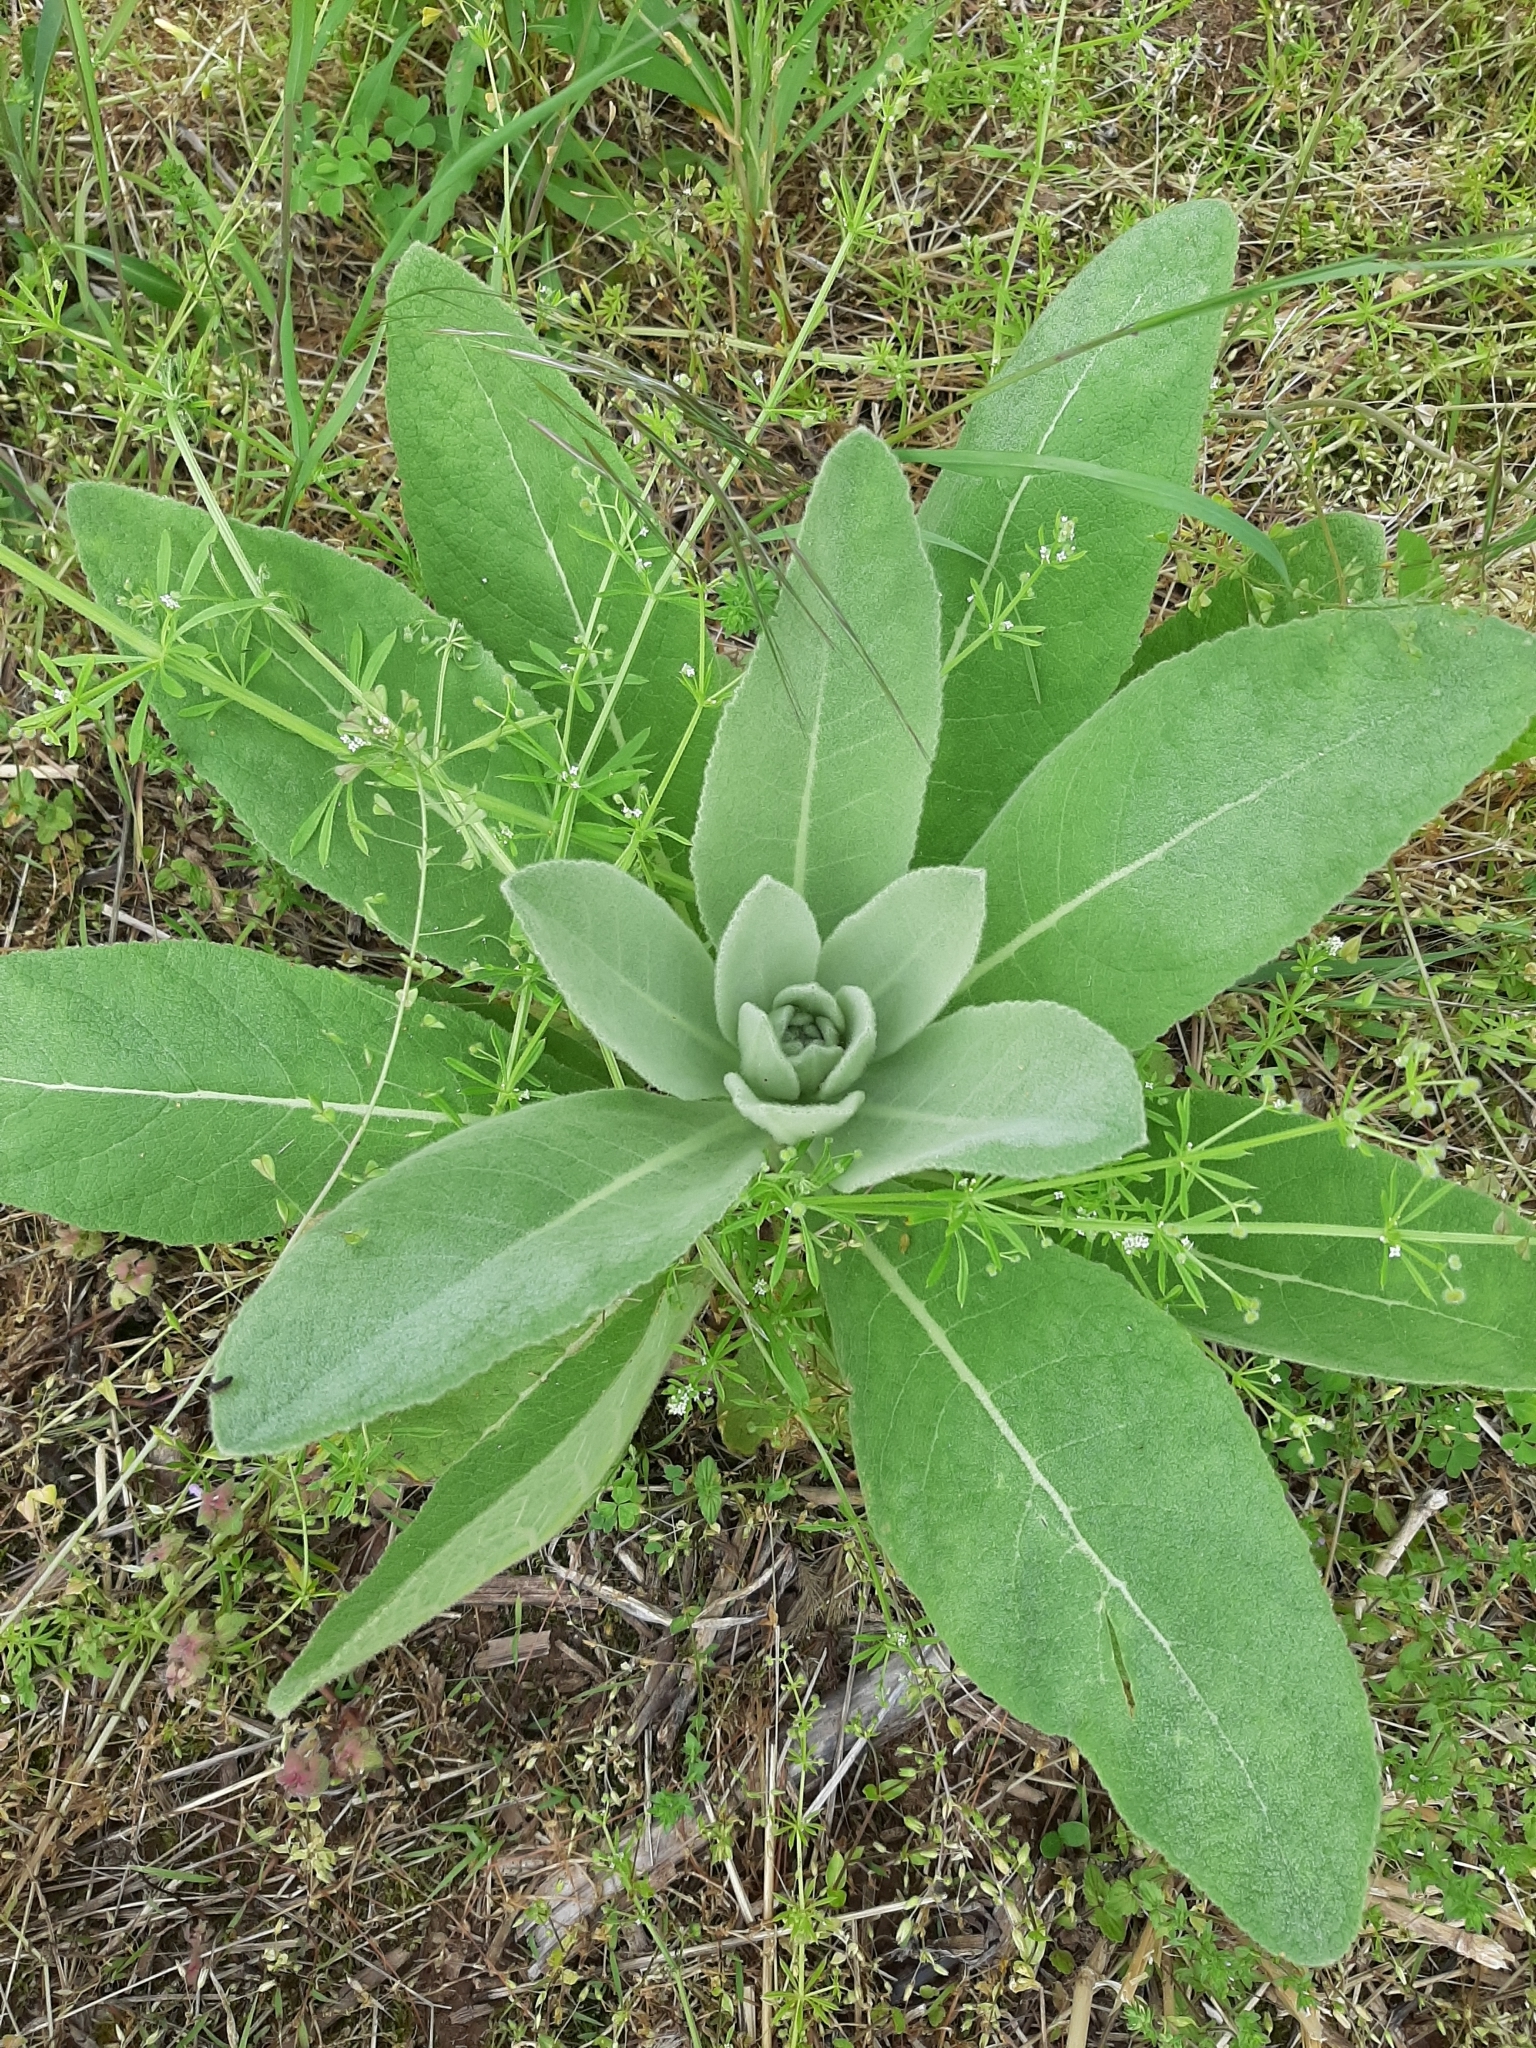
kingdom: Plantae
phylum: Tracheophyta
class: Magnoliopsida
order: Lamiales
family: Scrophulariaceae
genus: Verbascum
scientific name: Verbascum thapsus
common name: Common mullein
